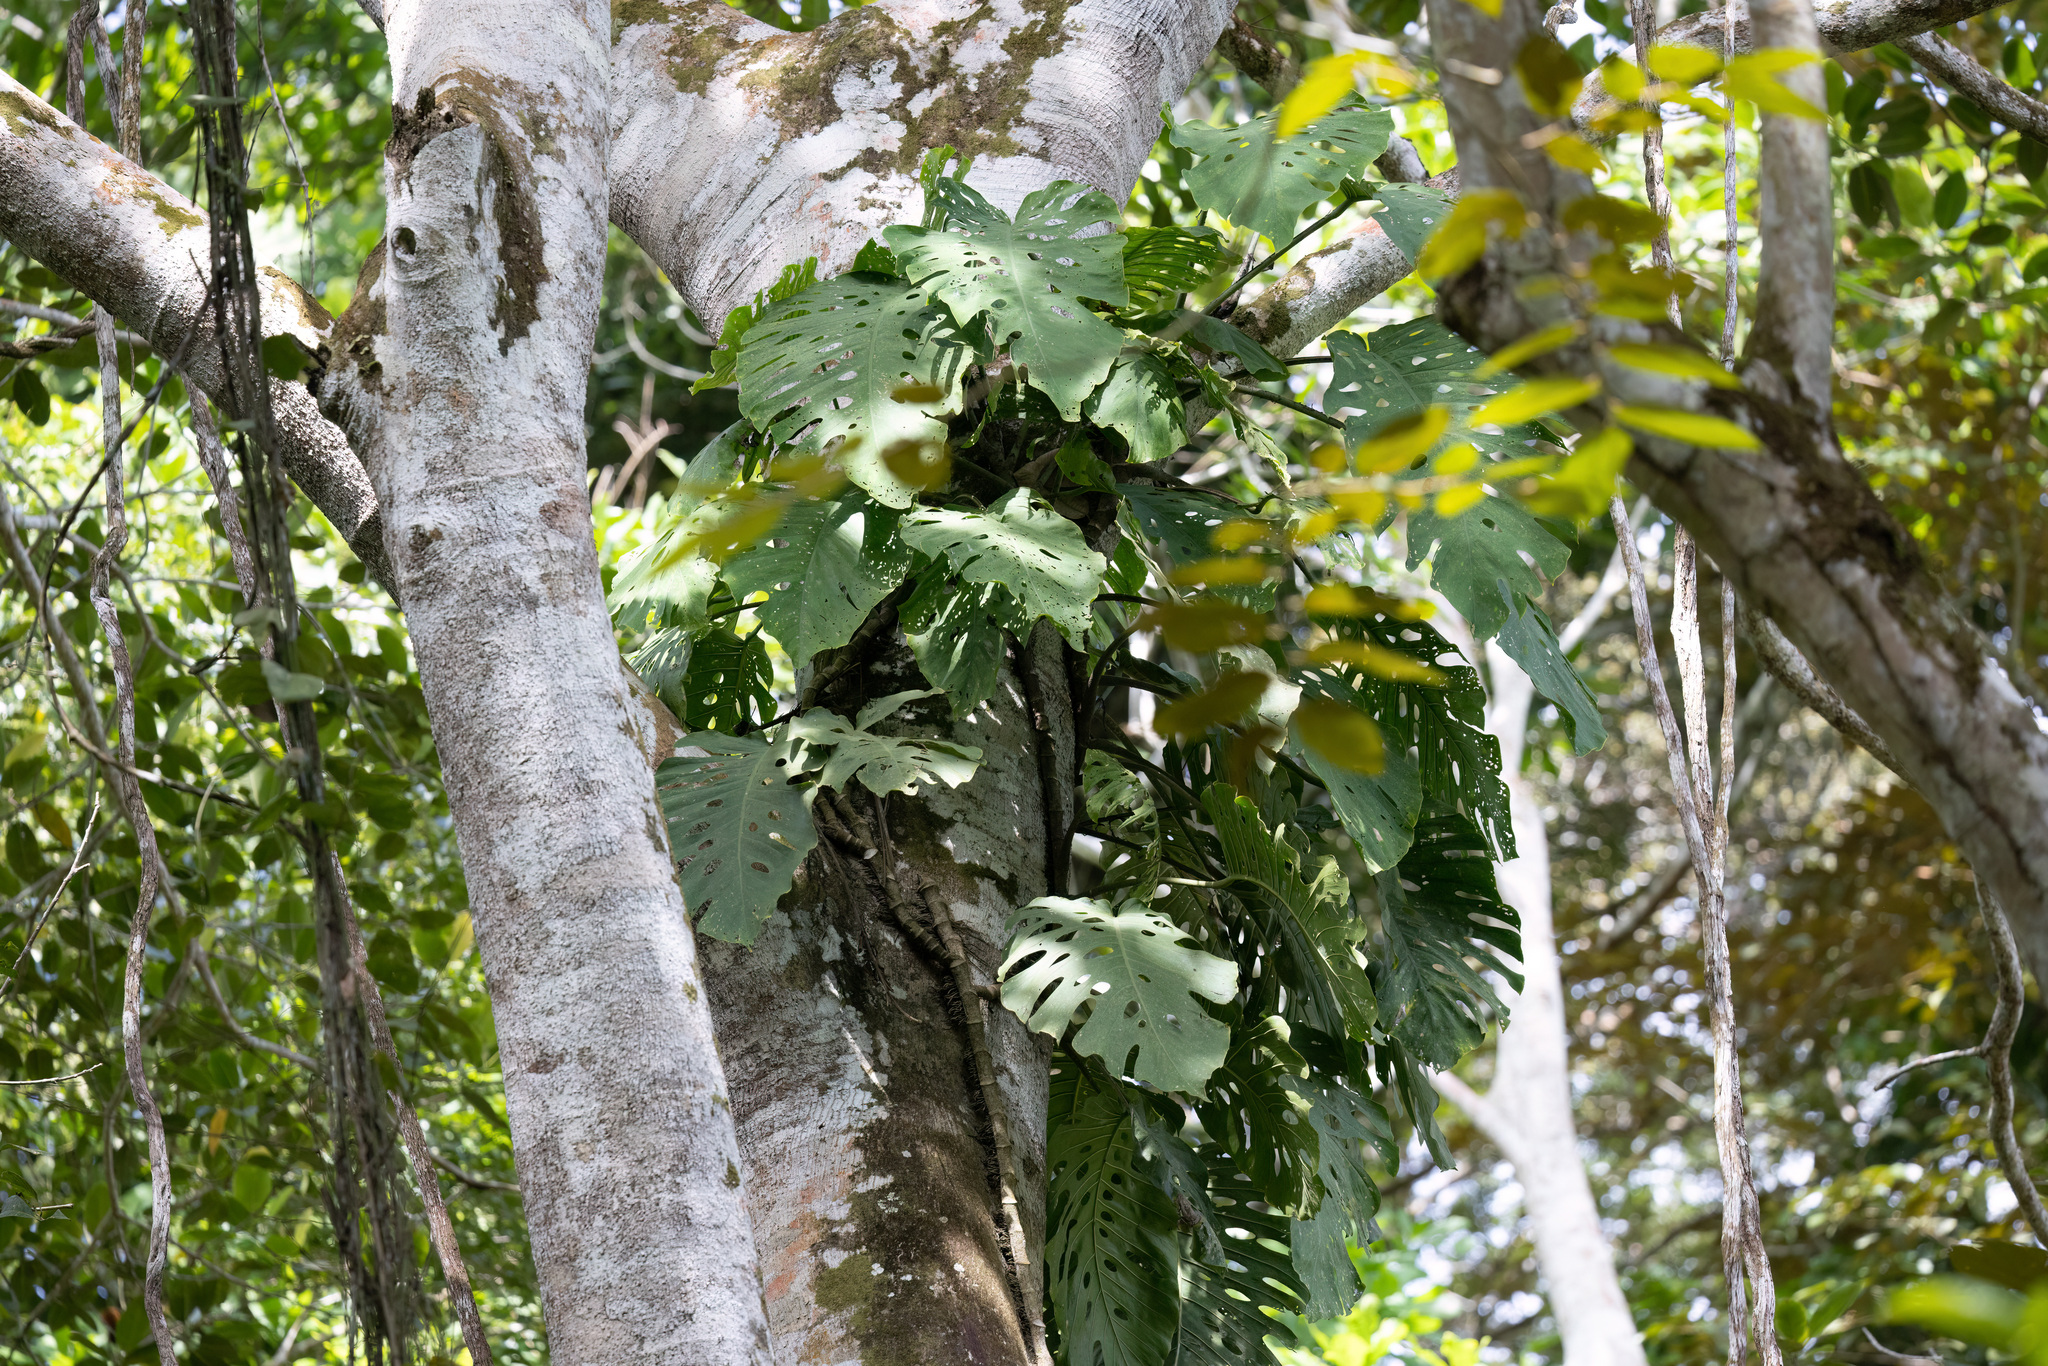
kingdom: Plantae
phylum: Tracheophyta
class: Liliopsida
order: Alismatales
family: Araceae
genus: Monstera
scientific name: Monstera dubia
